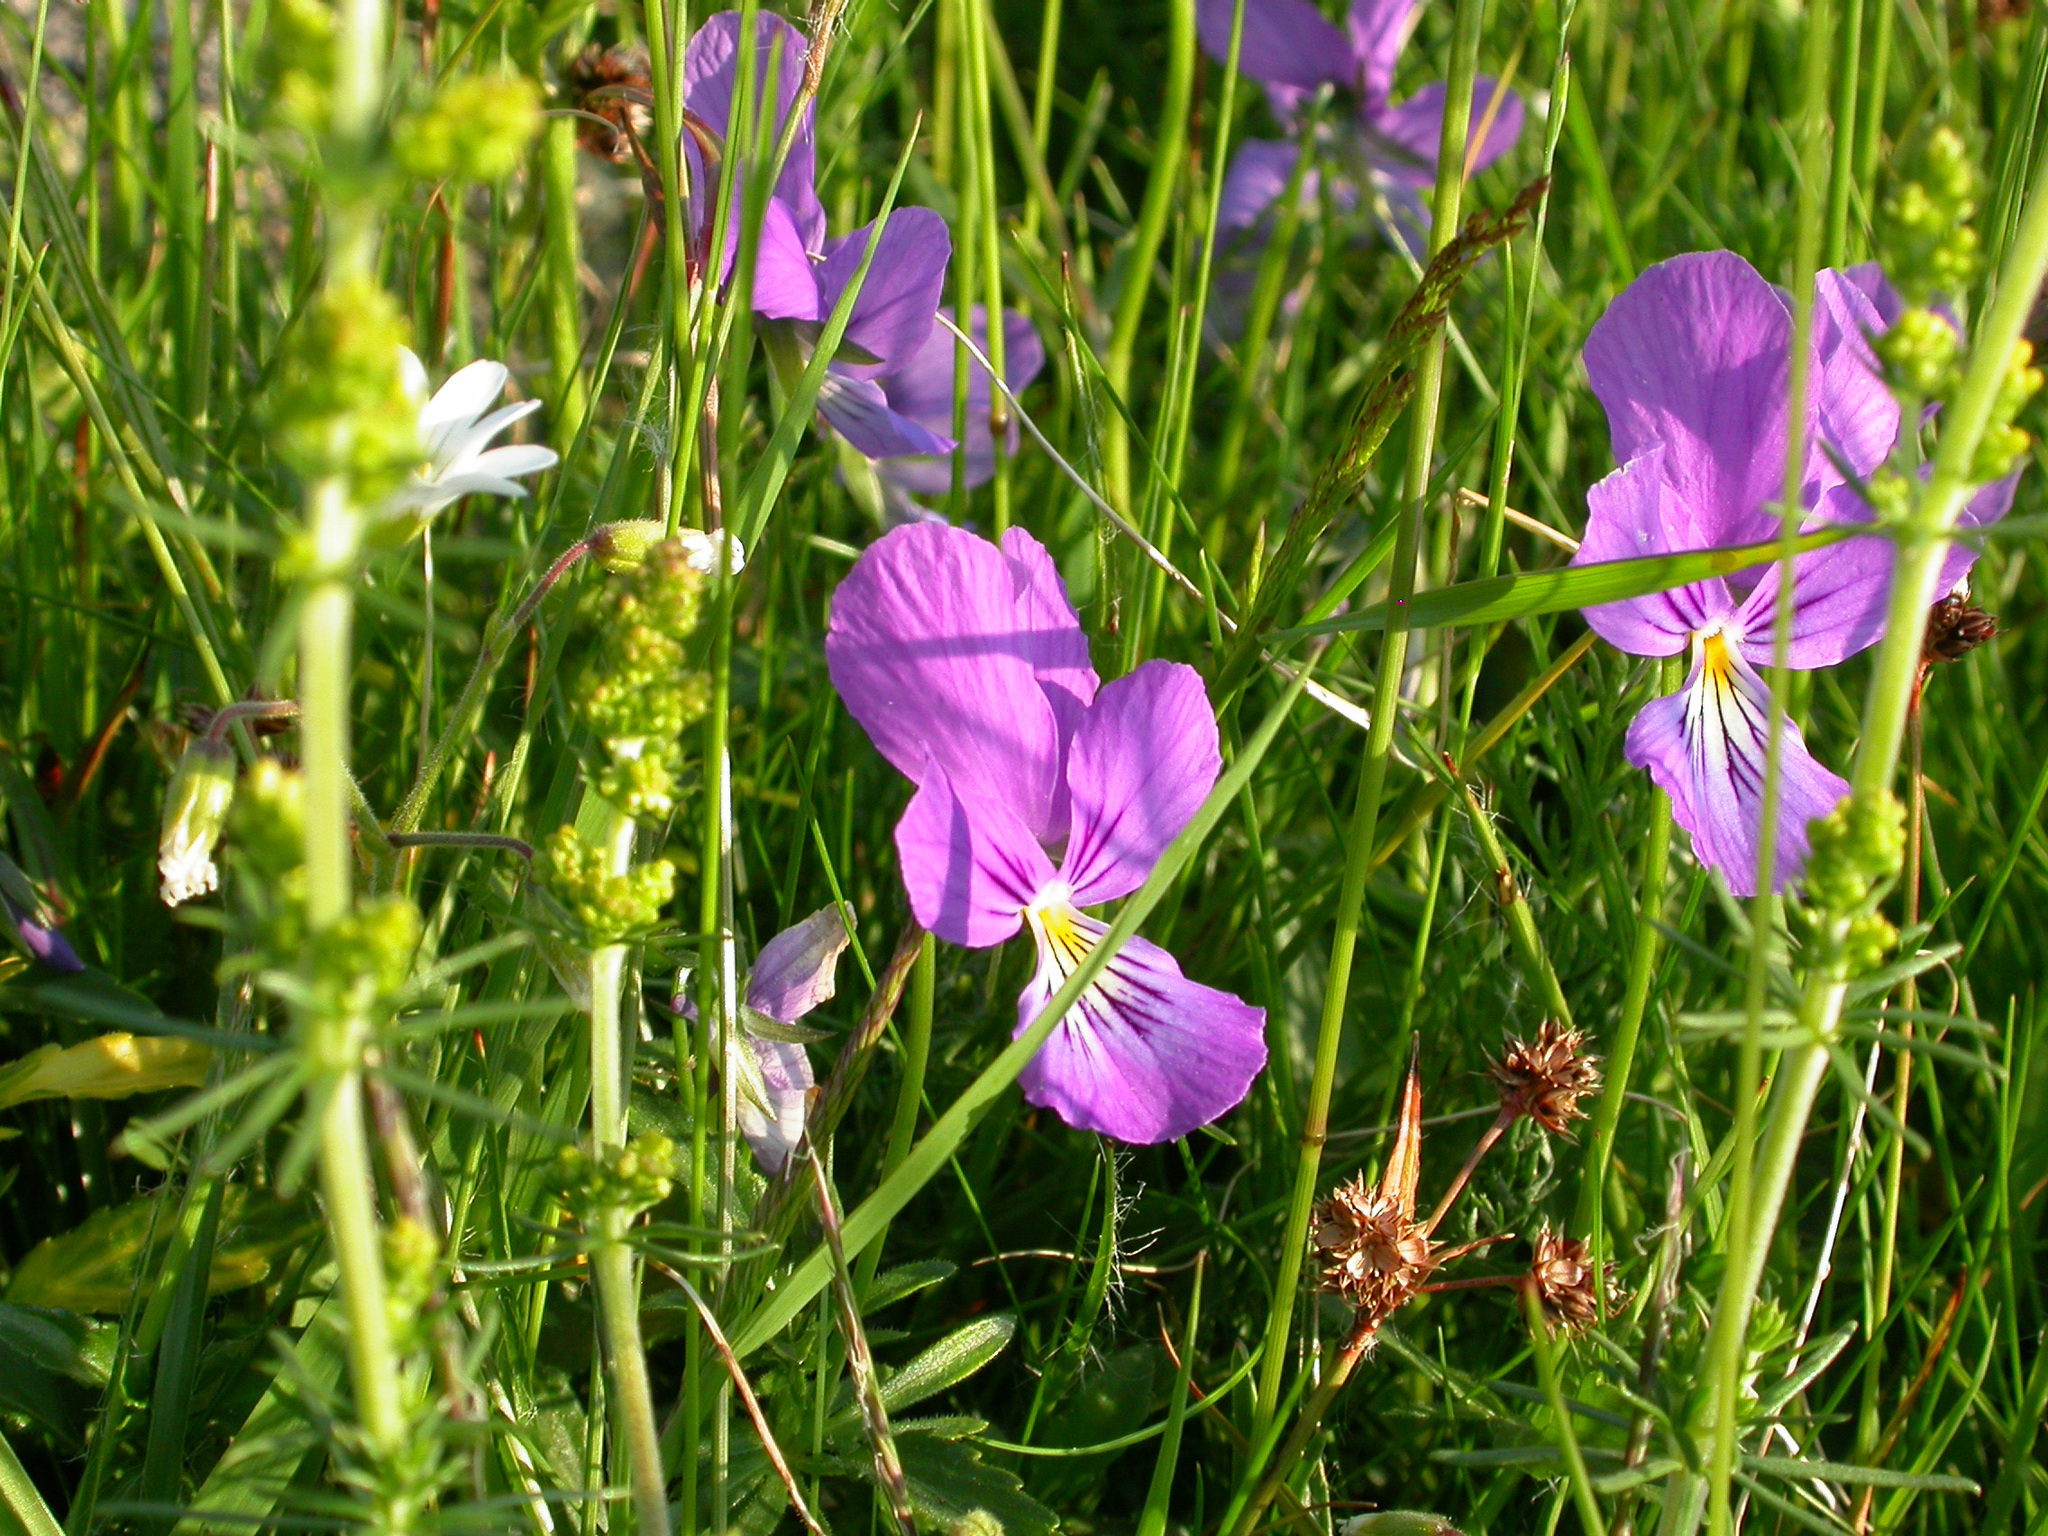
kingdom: Plantae
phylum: Tracheophyta
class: Magnoliopsida
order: Malpighiales
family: Violaceae
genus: Viola
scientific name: Viola lutea
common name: Mountain pansy
